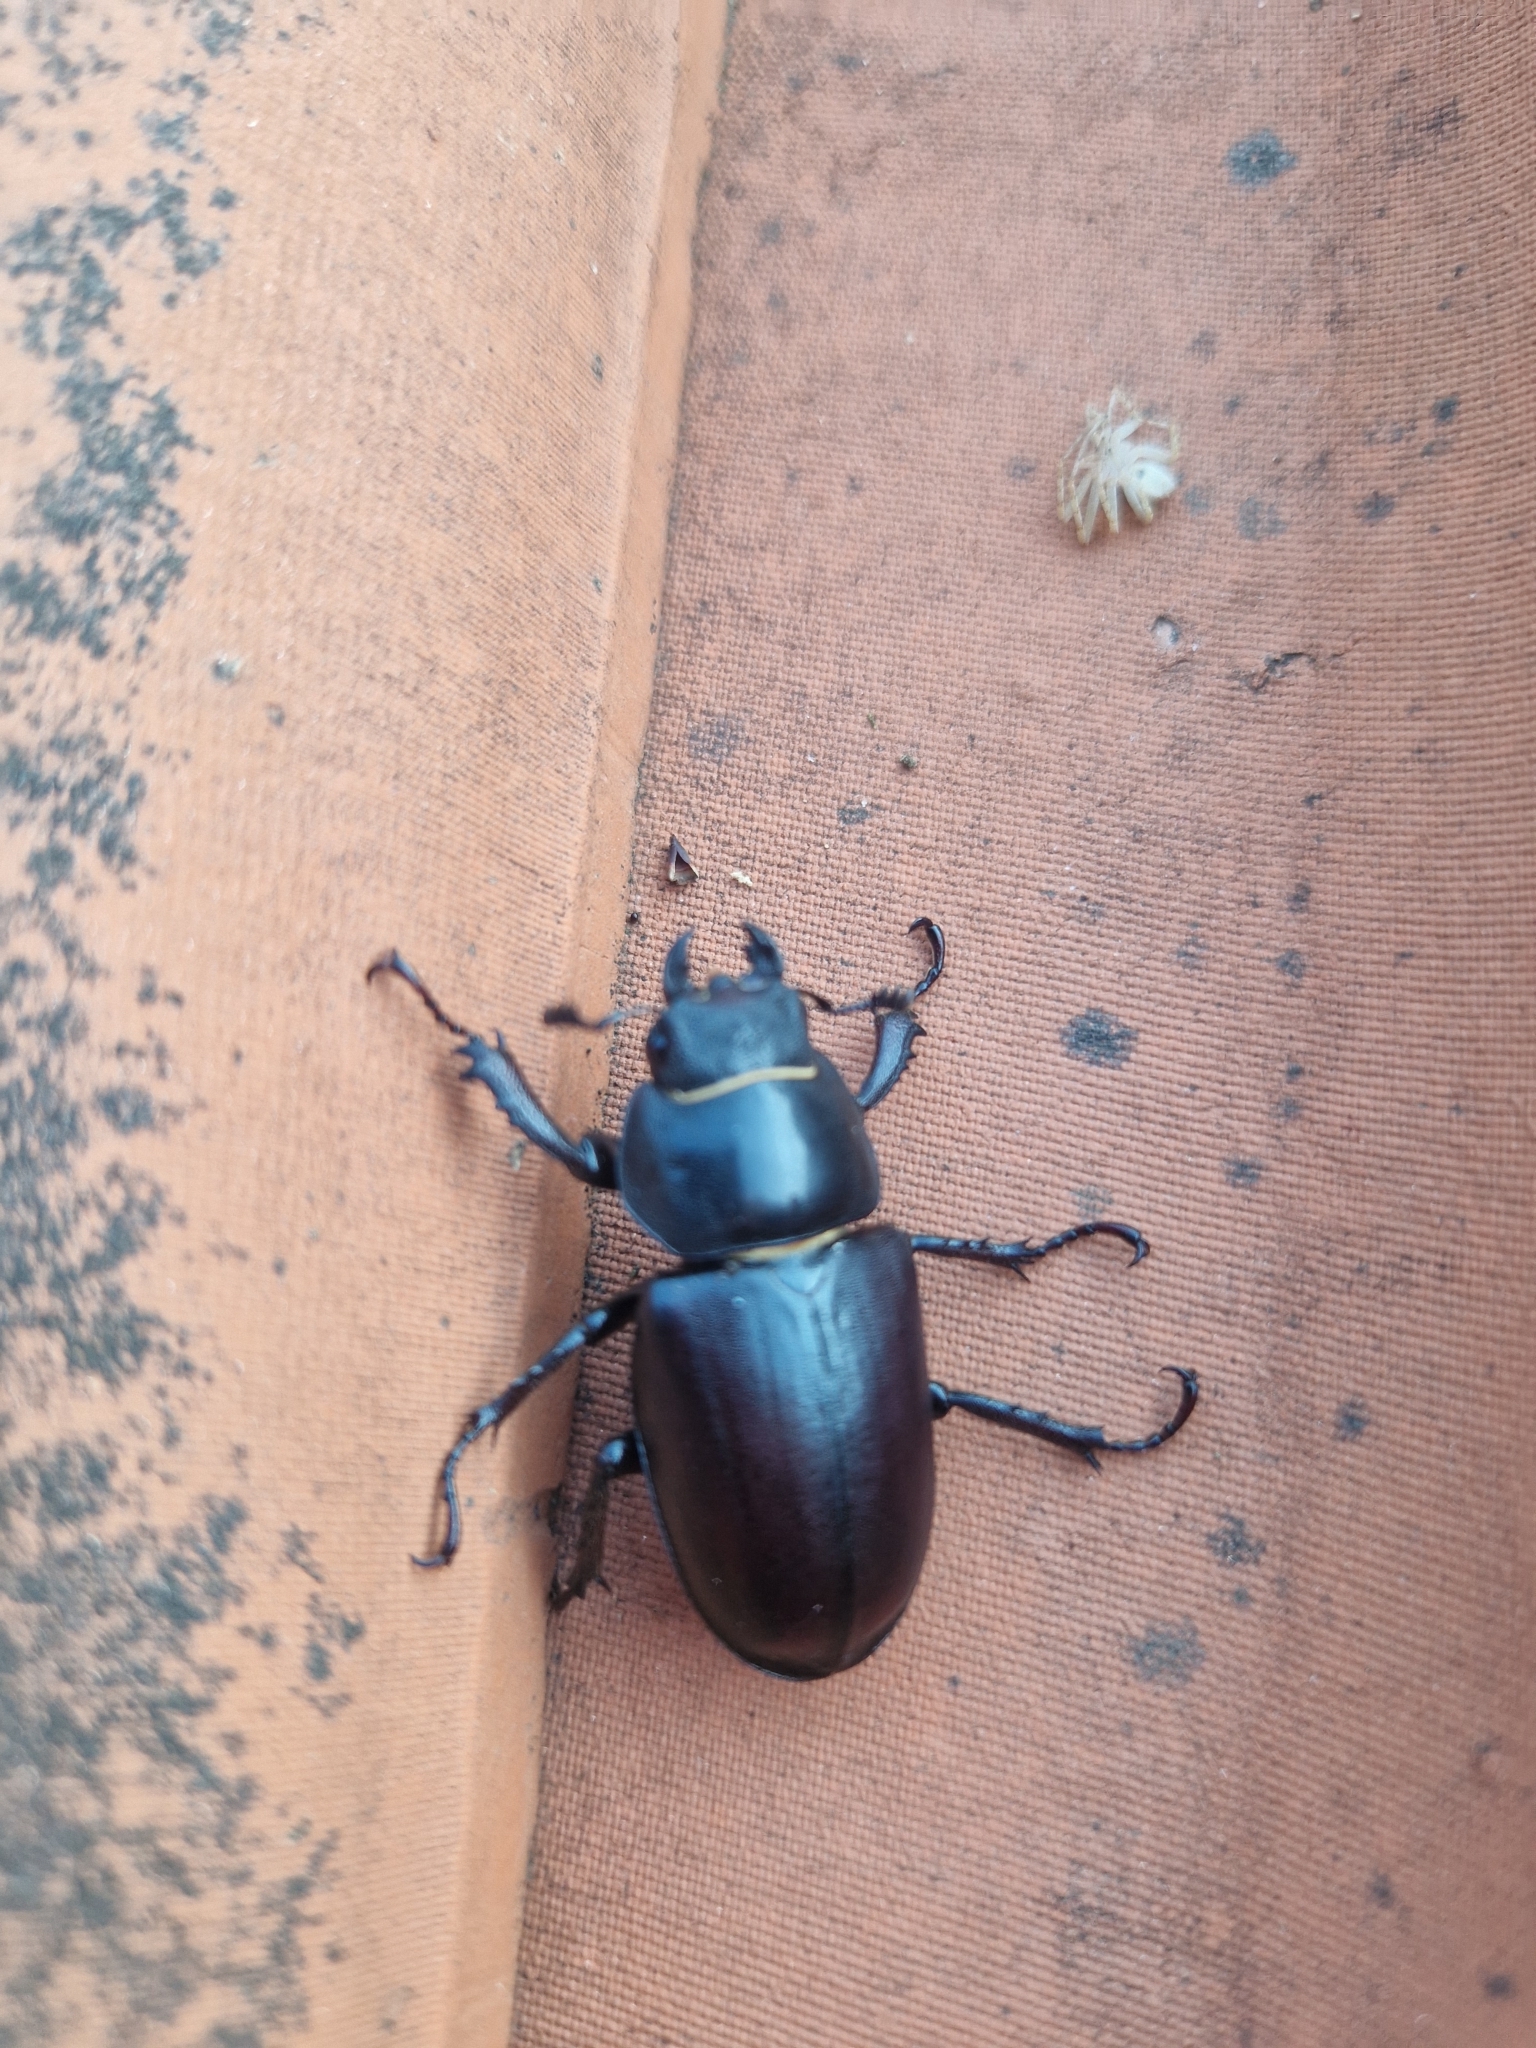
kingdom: Animalia
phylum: Arthropoda
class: Insecta
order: Coleoptera
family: Lucanidae
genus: Lucanus
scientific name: Lucanus cervus
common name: Stag beetle
